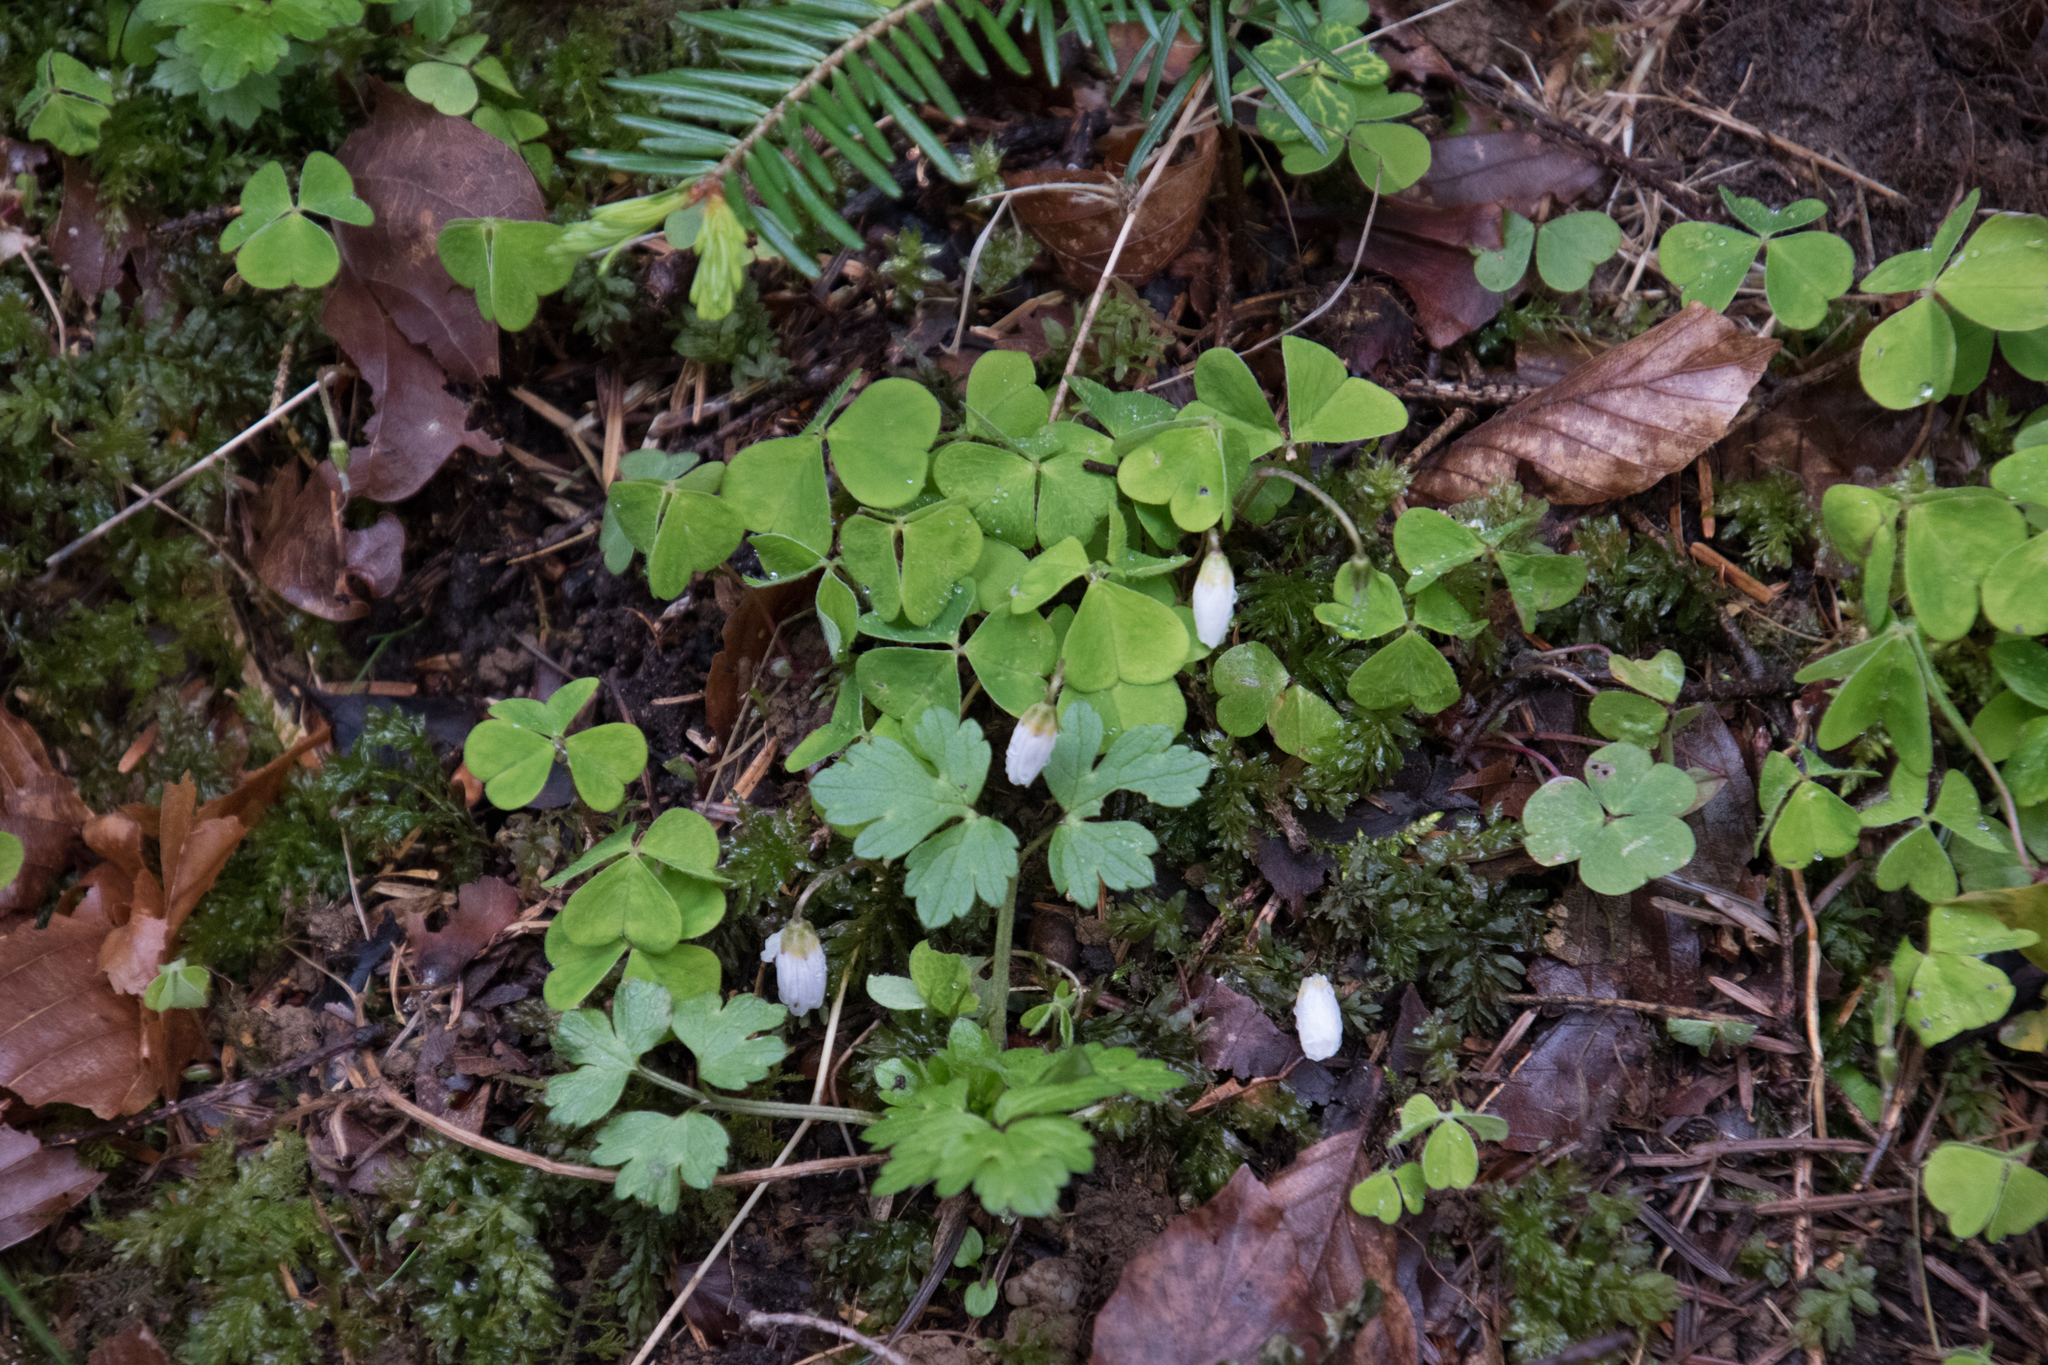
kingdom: Plantae
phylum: Tracheophyta
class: Magnoliopsida
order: Oxalidales
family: Oxalidaceae
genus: Oxalis
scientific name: Oxalis acetosella
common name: Wood-sorrel
